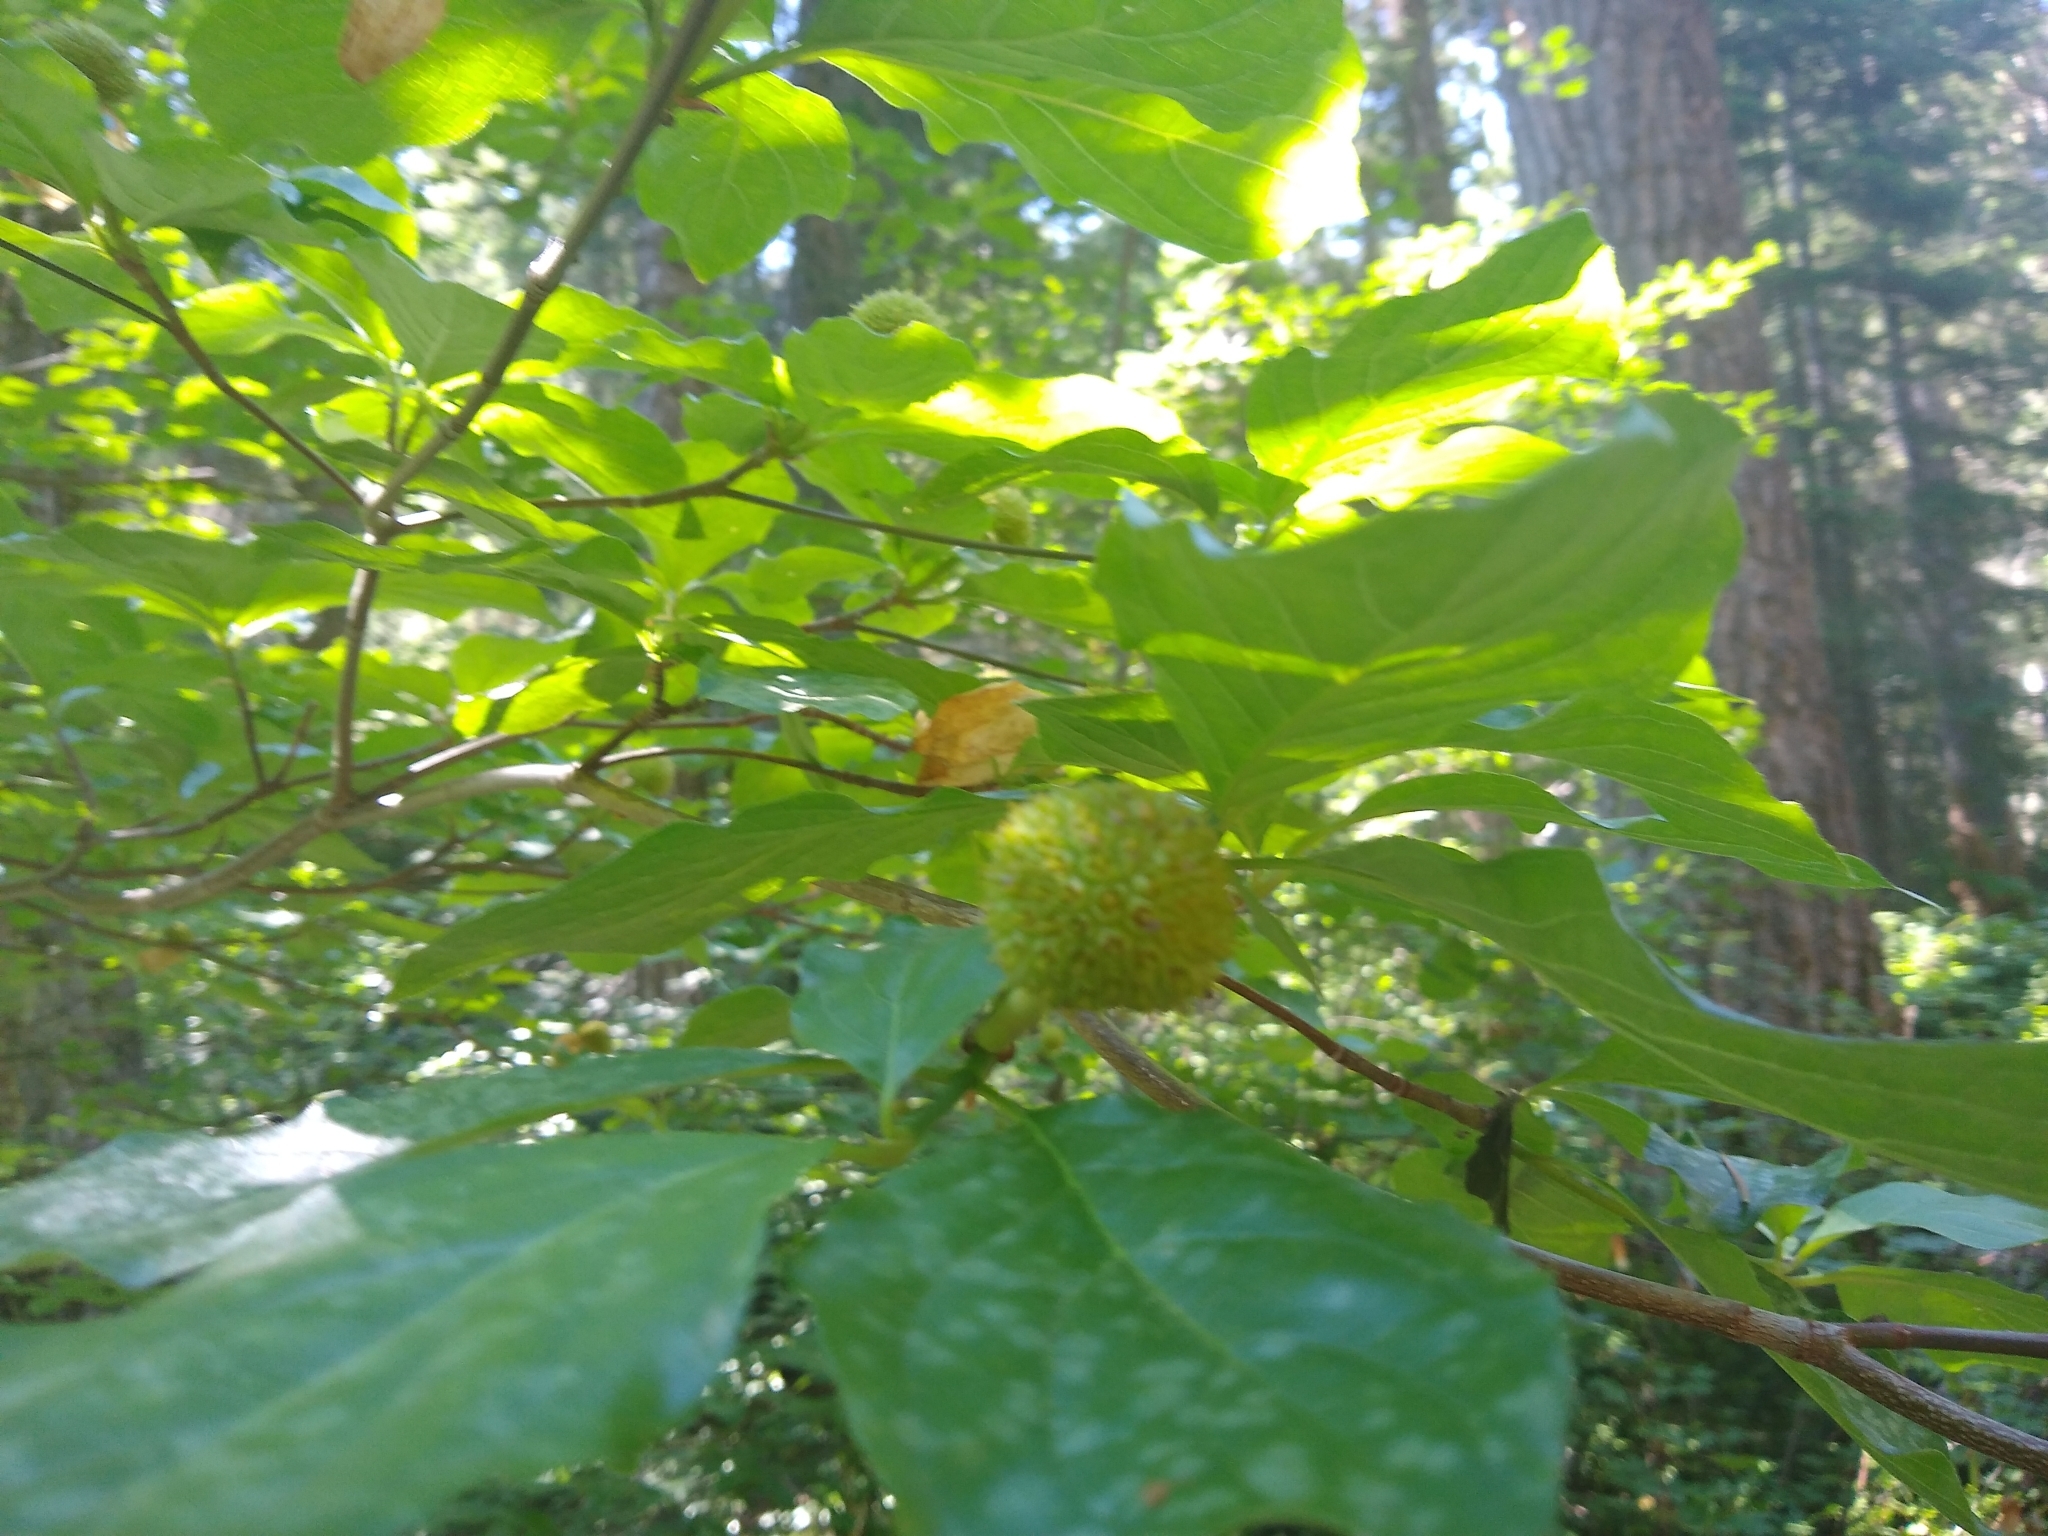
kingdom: Plantae
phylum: Tracheophyta
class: Magnoliopsida
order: Cornales
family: Cornaceae
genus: Cornus
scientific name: Cornus nuttallii
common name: Pacific dogwood
